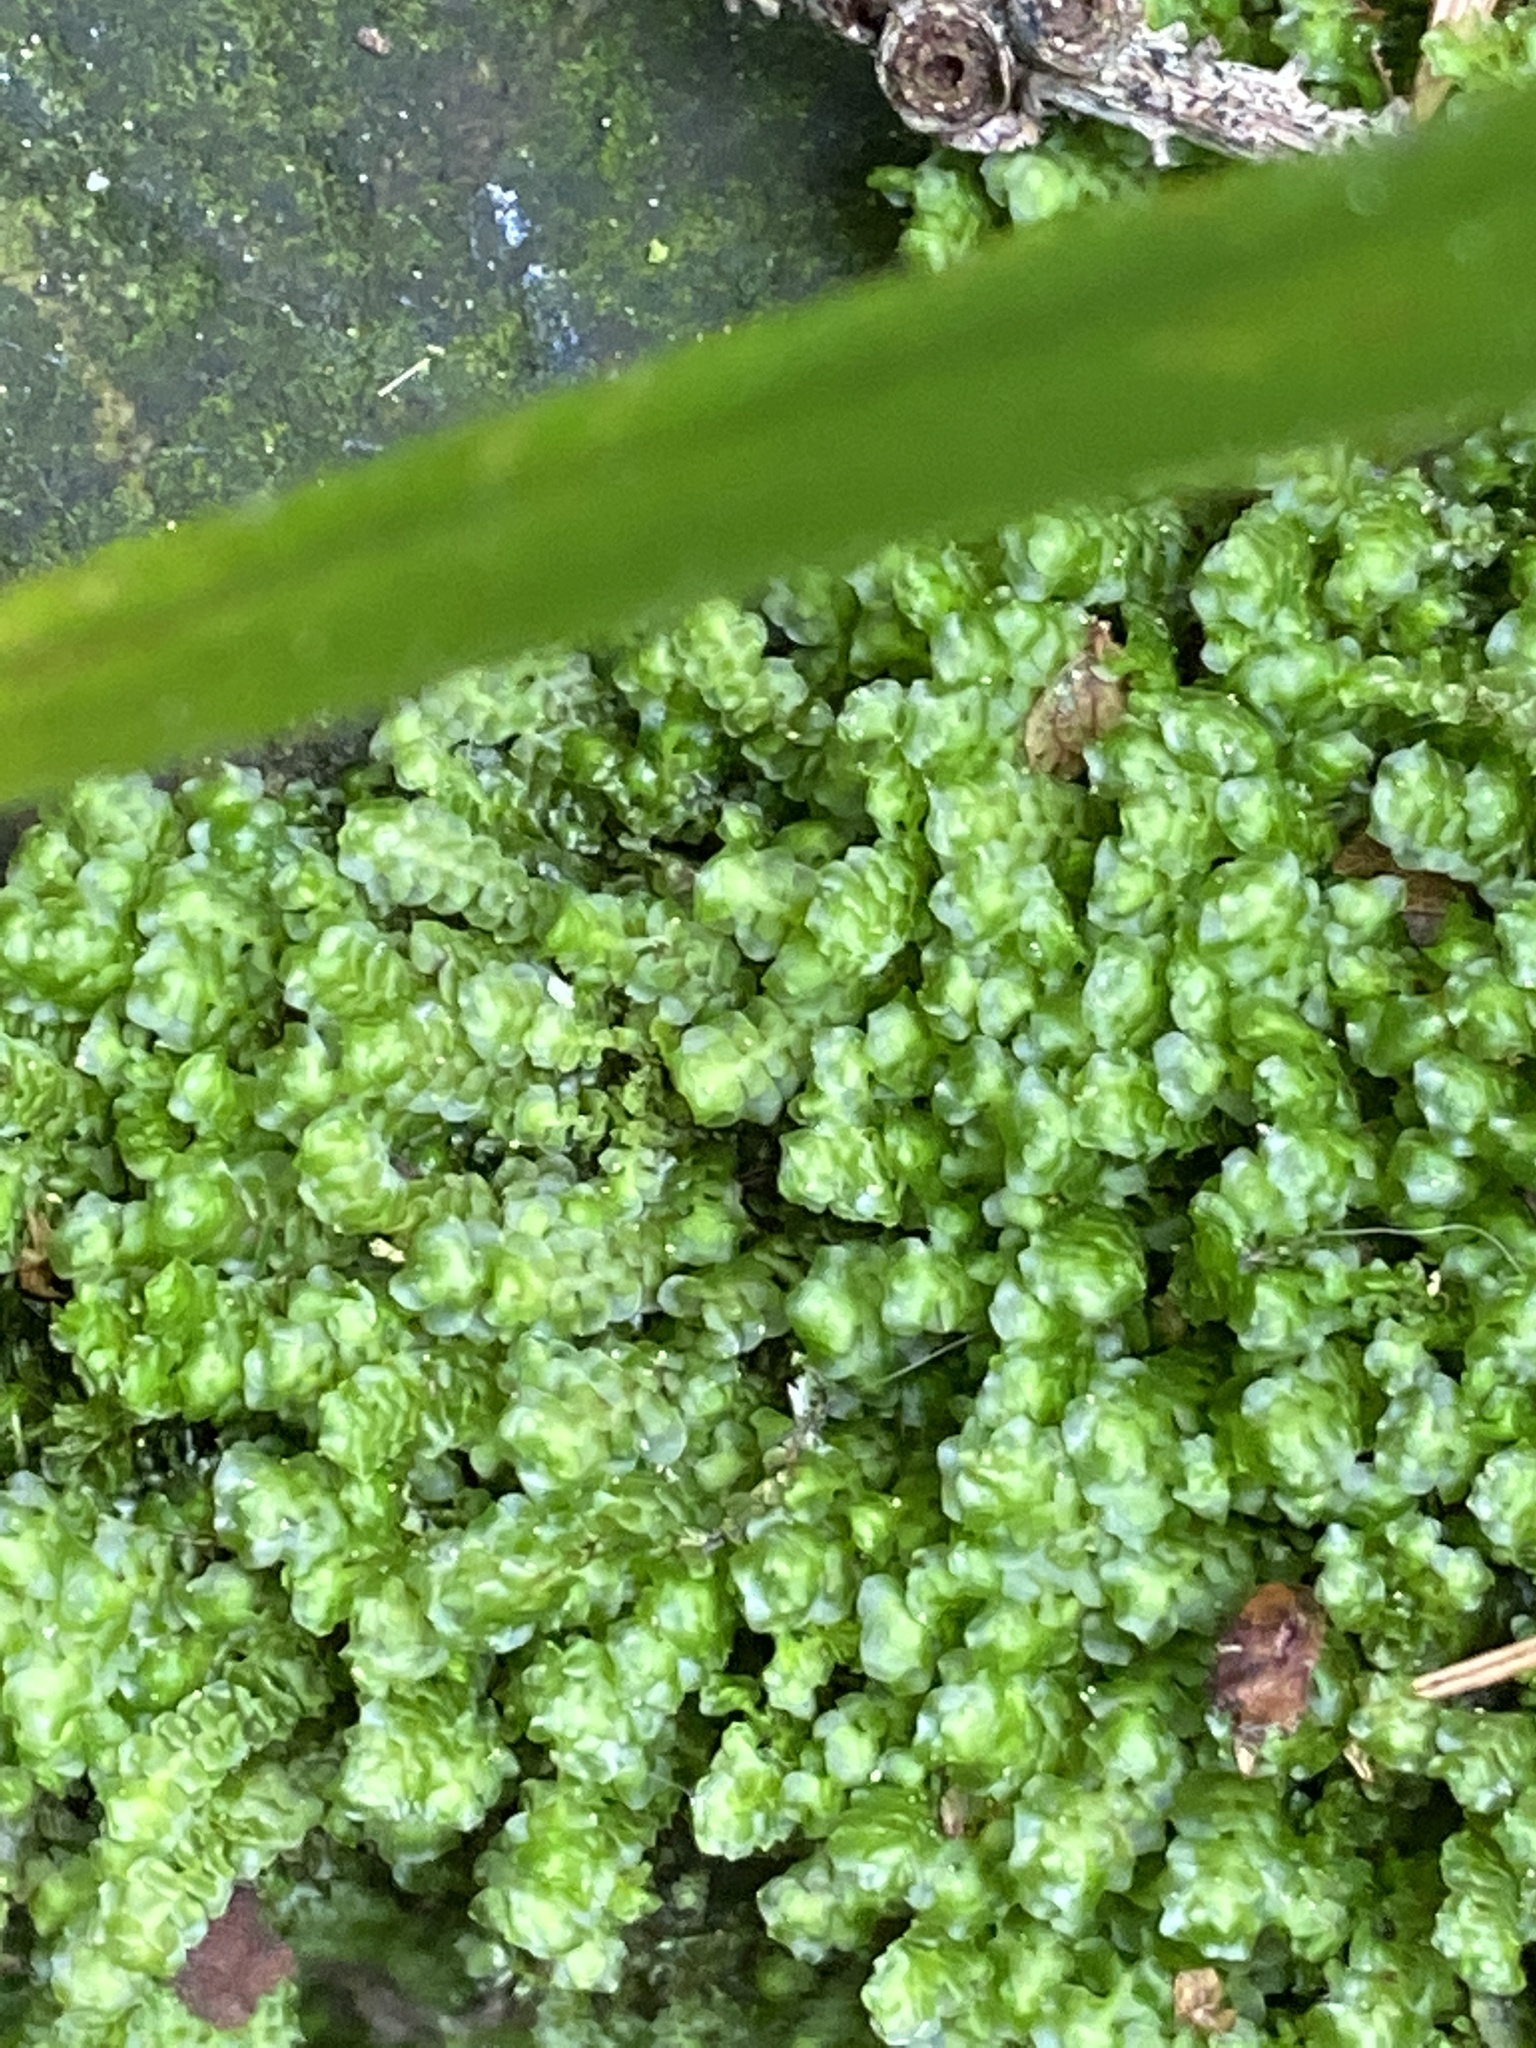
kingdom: Plantae
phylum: Marchantiophyta
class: Jungermanniopsida
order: Jungermanniales
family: Scapaniaceae
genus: Scapania
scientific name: Scapania undulata
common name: Water earwort
